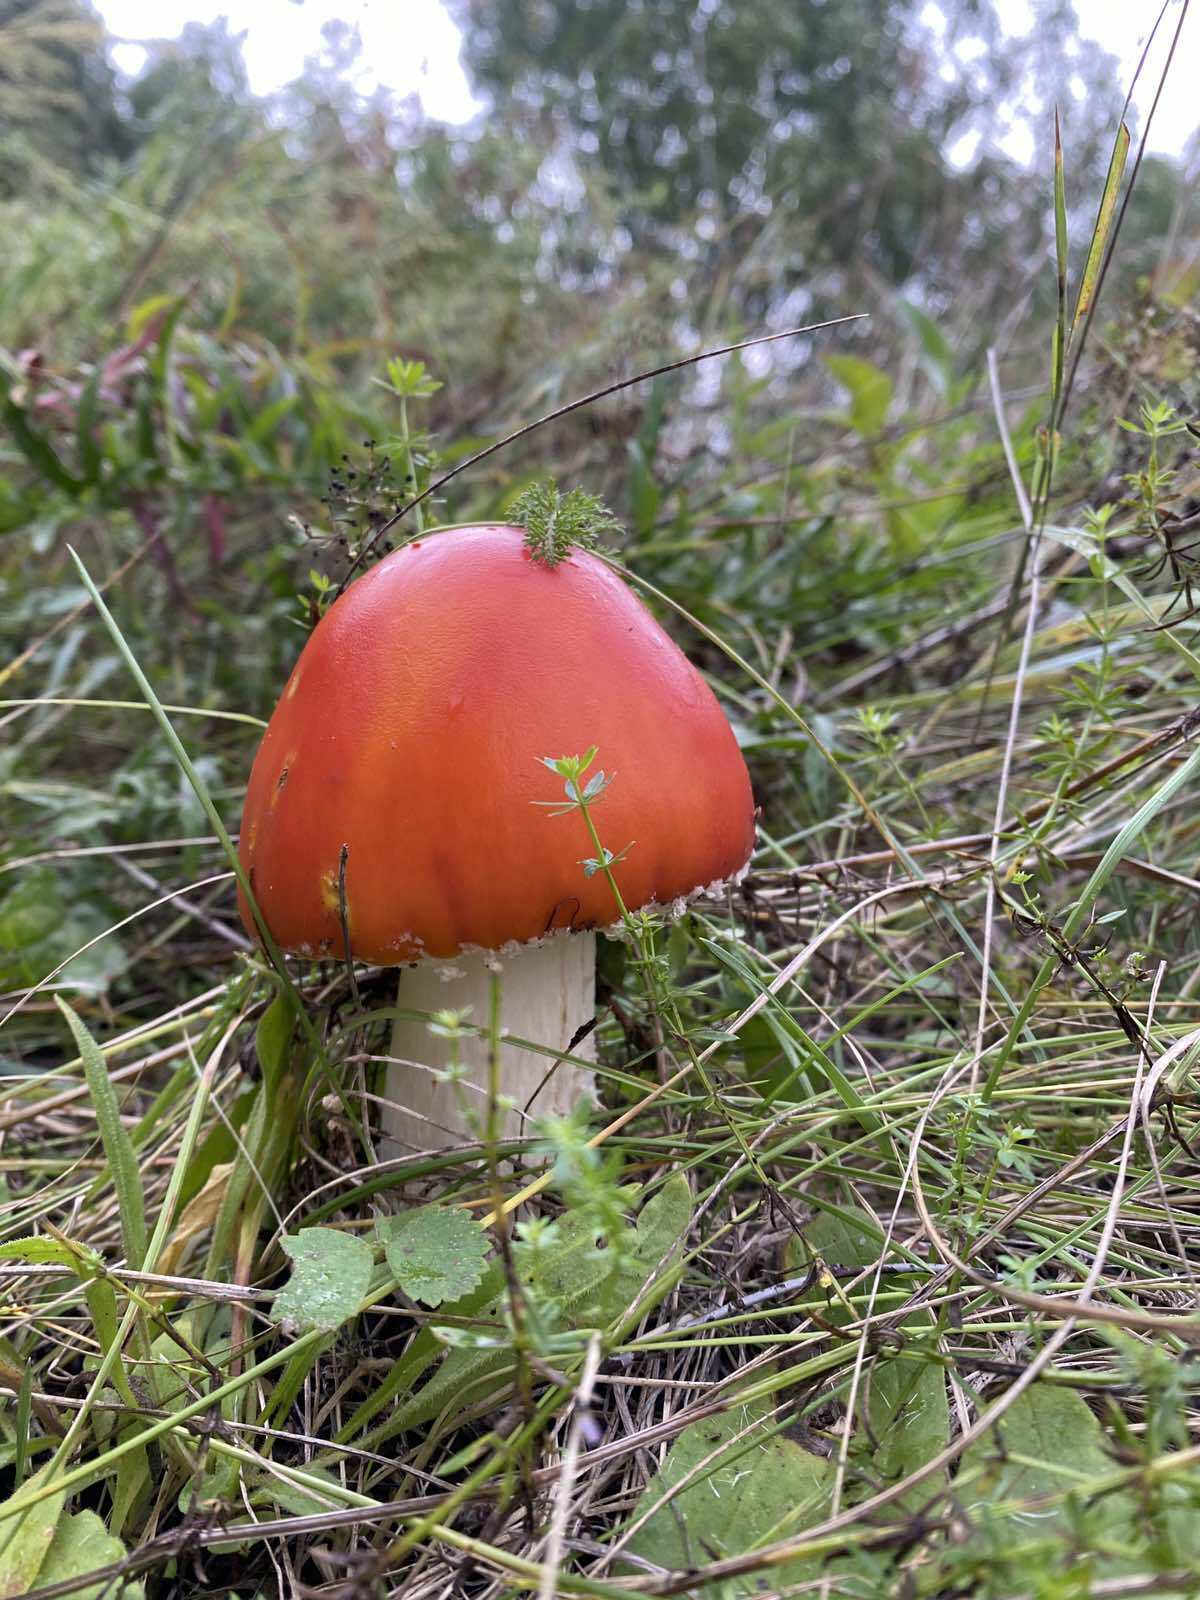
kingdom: Fungi
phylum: Basidiomycota
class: Agaricomycetes
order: Agaricales
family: Amanitaceae
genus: Amanita
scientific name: Amanita muscaria
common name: Fly agaric
